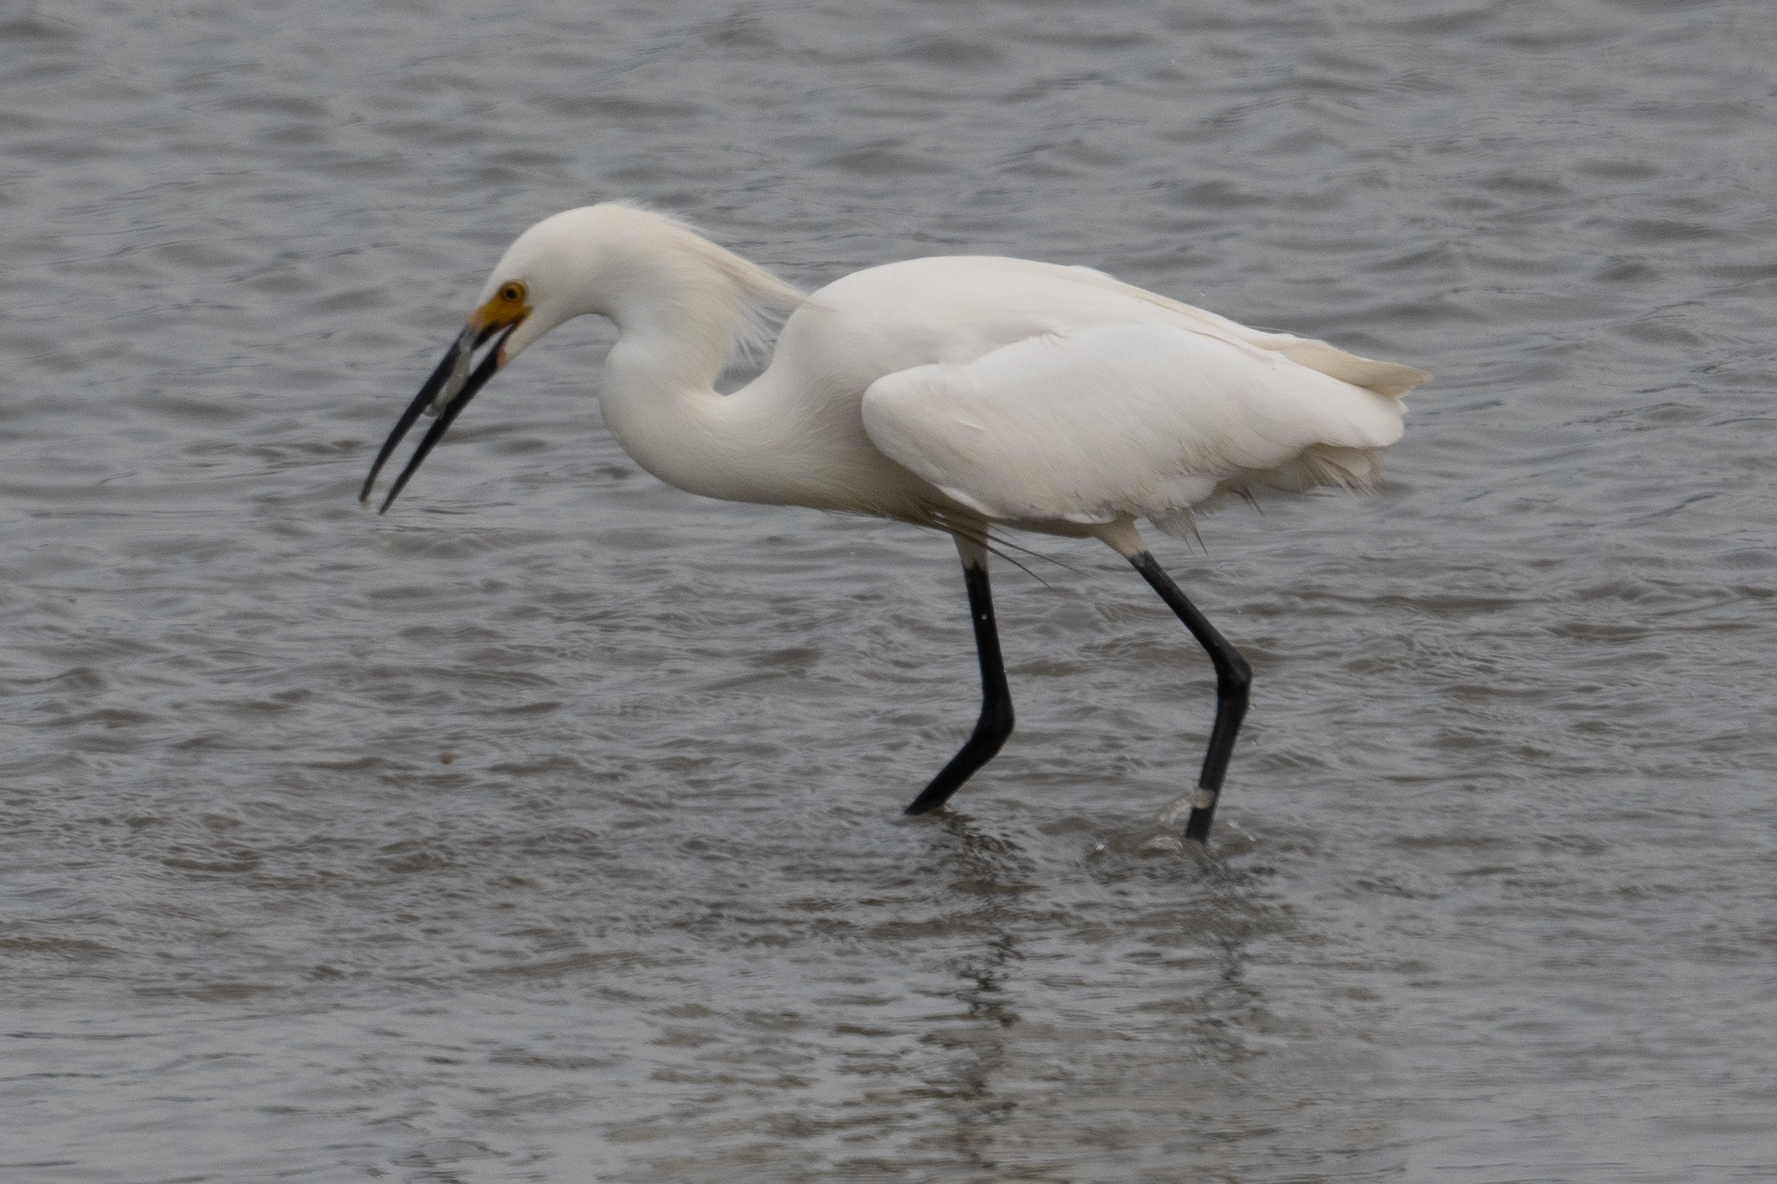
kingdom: Animalia
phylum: Chordata
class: Aves
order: Pelecaniformes
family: Ardeidae
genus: Egretta
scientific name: Egretta thula
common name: Snowy egret
